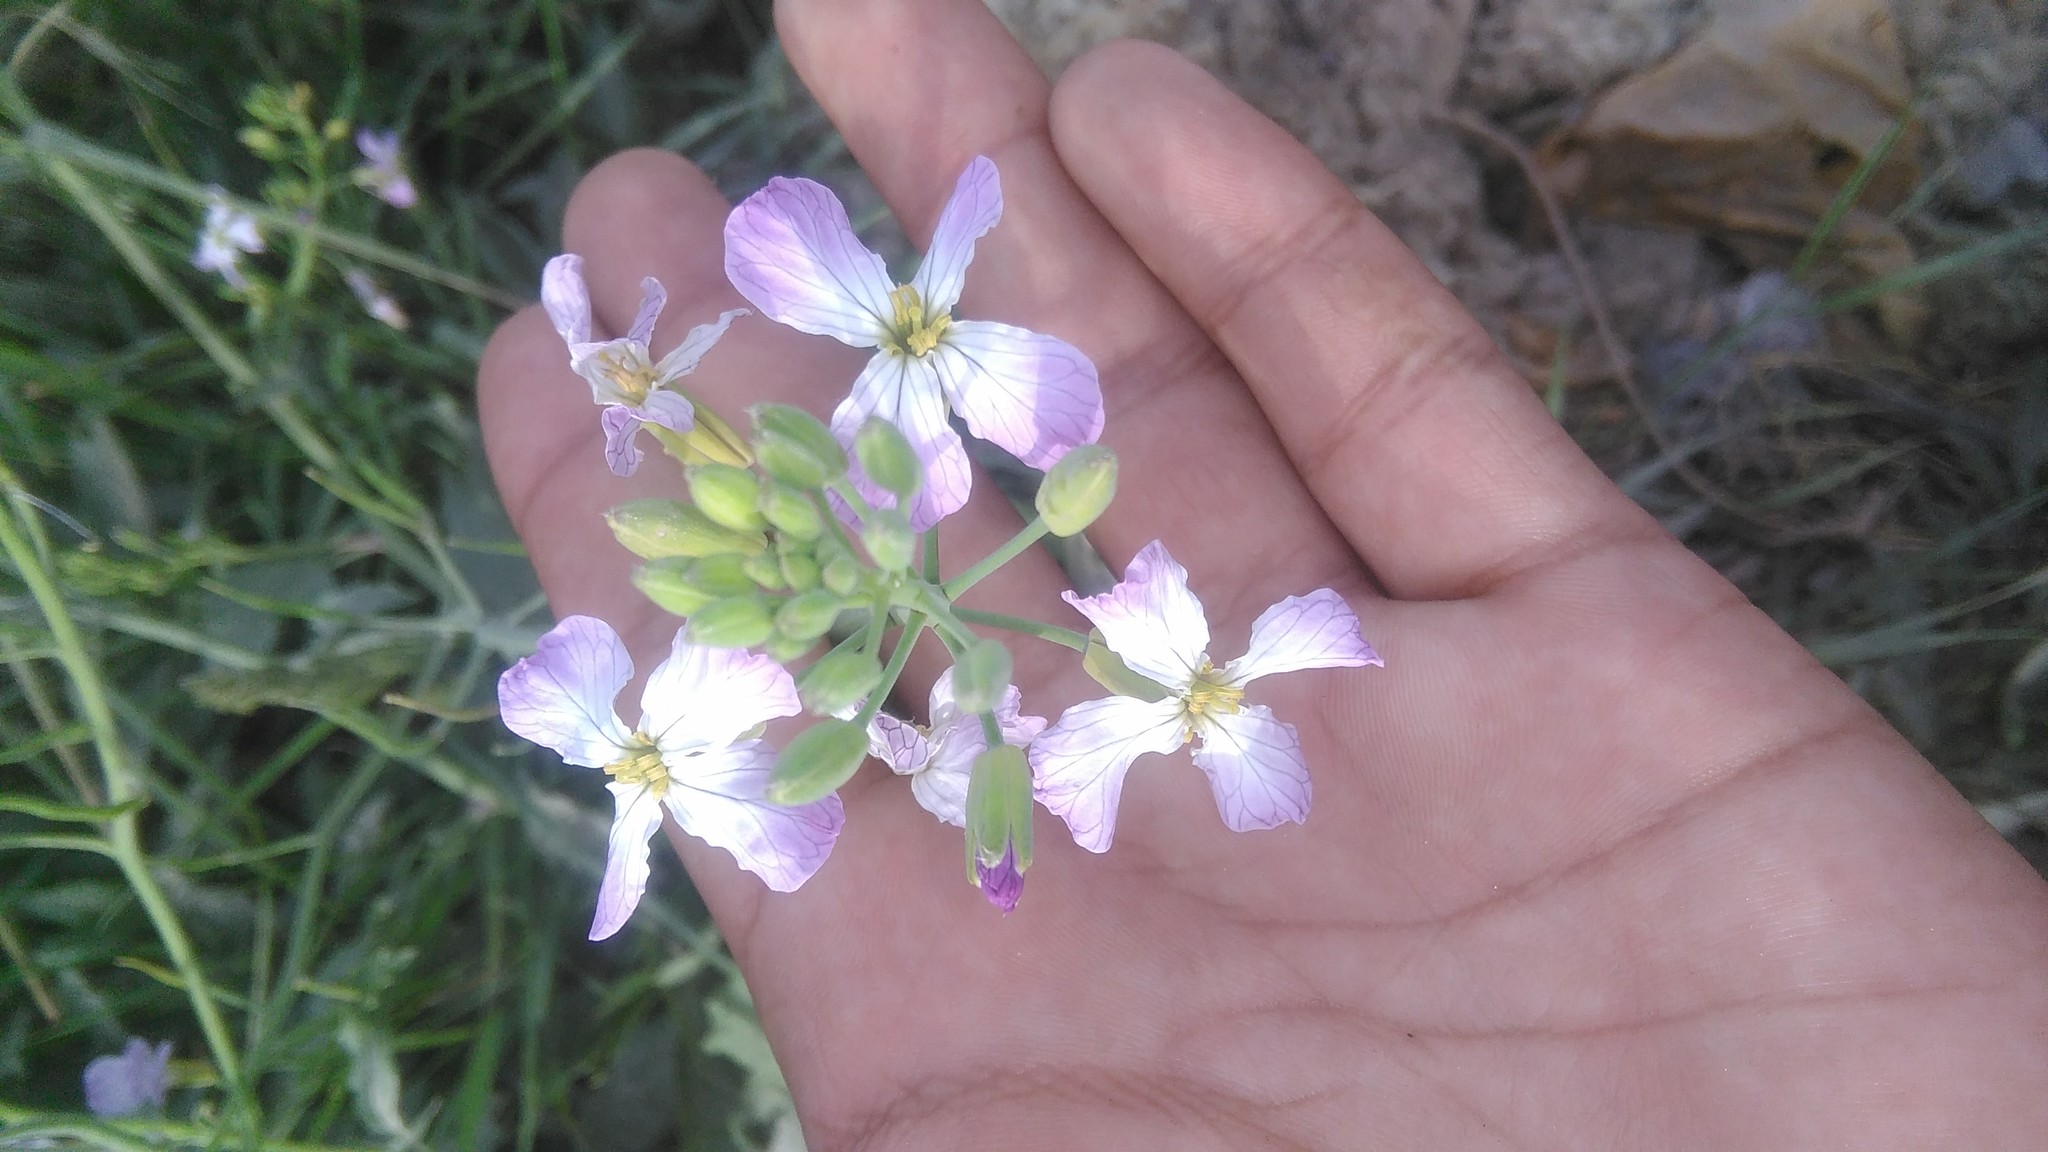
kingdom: Plantae
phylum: Tracheophyta
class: Magnoliopsida
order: Brassicales
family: Brassicaceae
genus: Raphanus
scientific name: Raphanus sativus
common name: Cultivated radish
